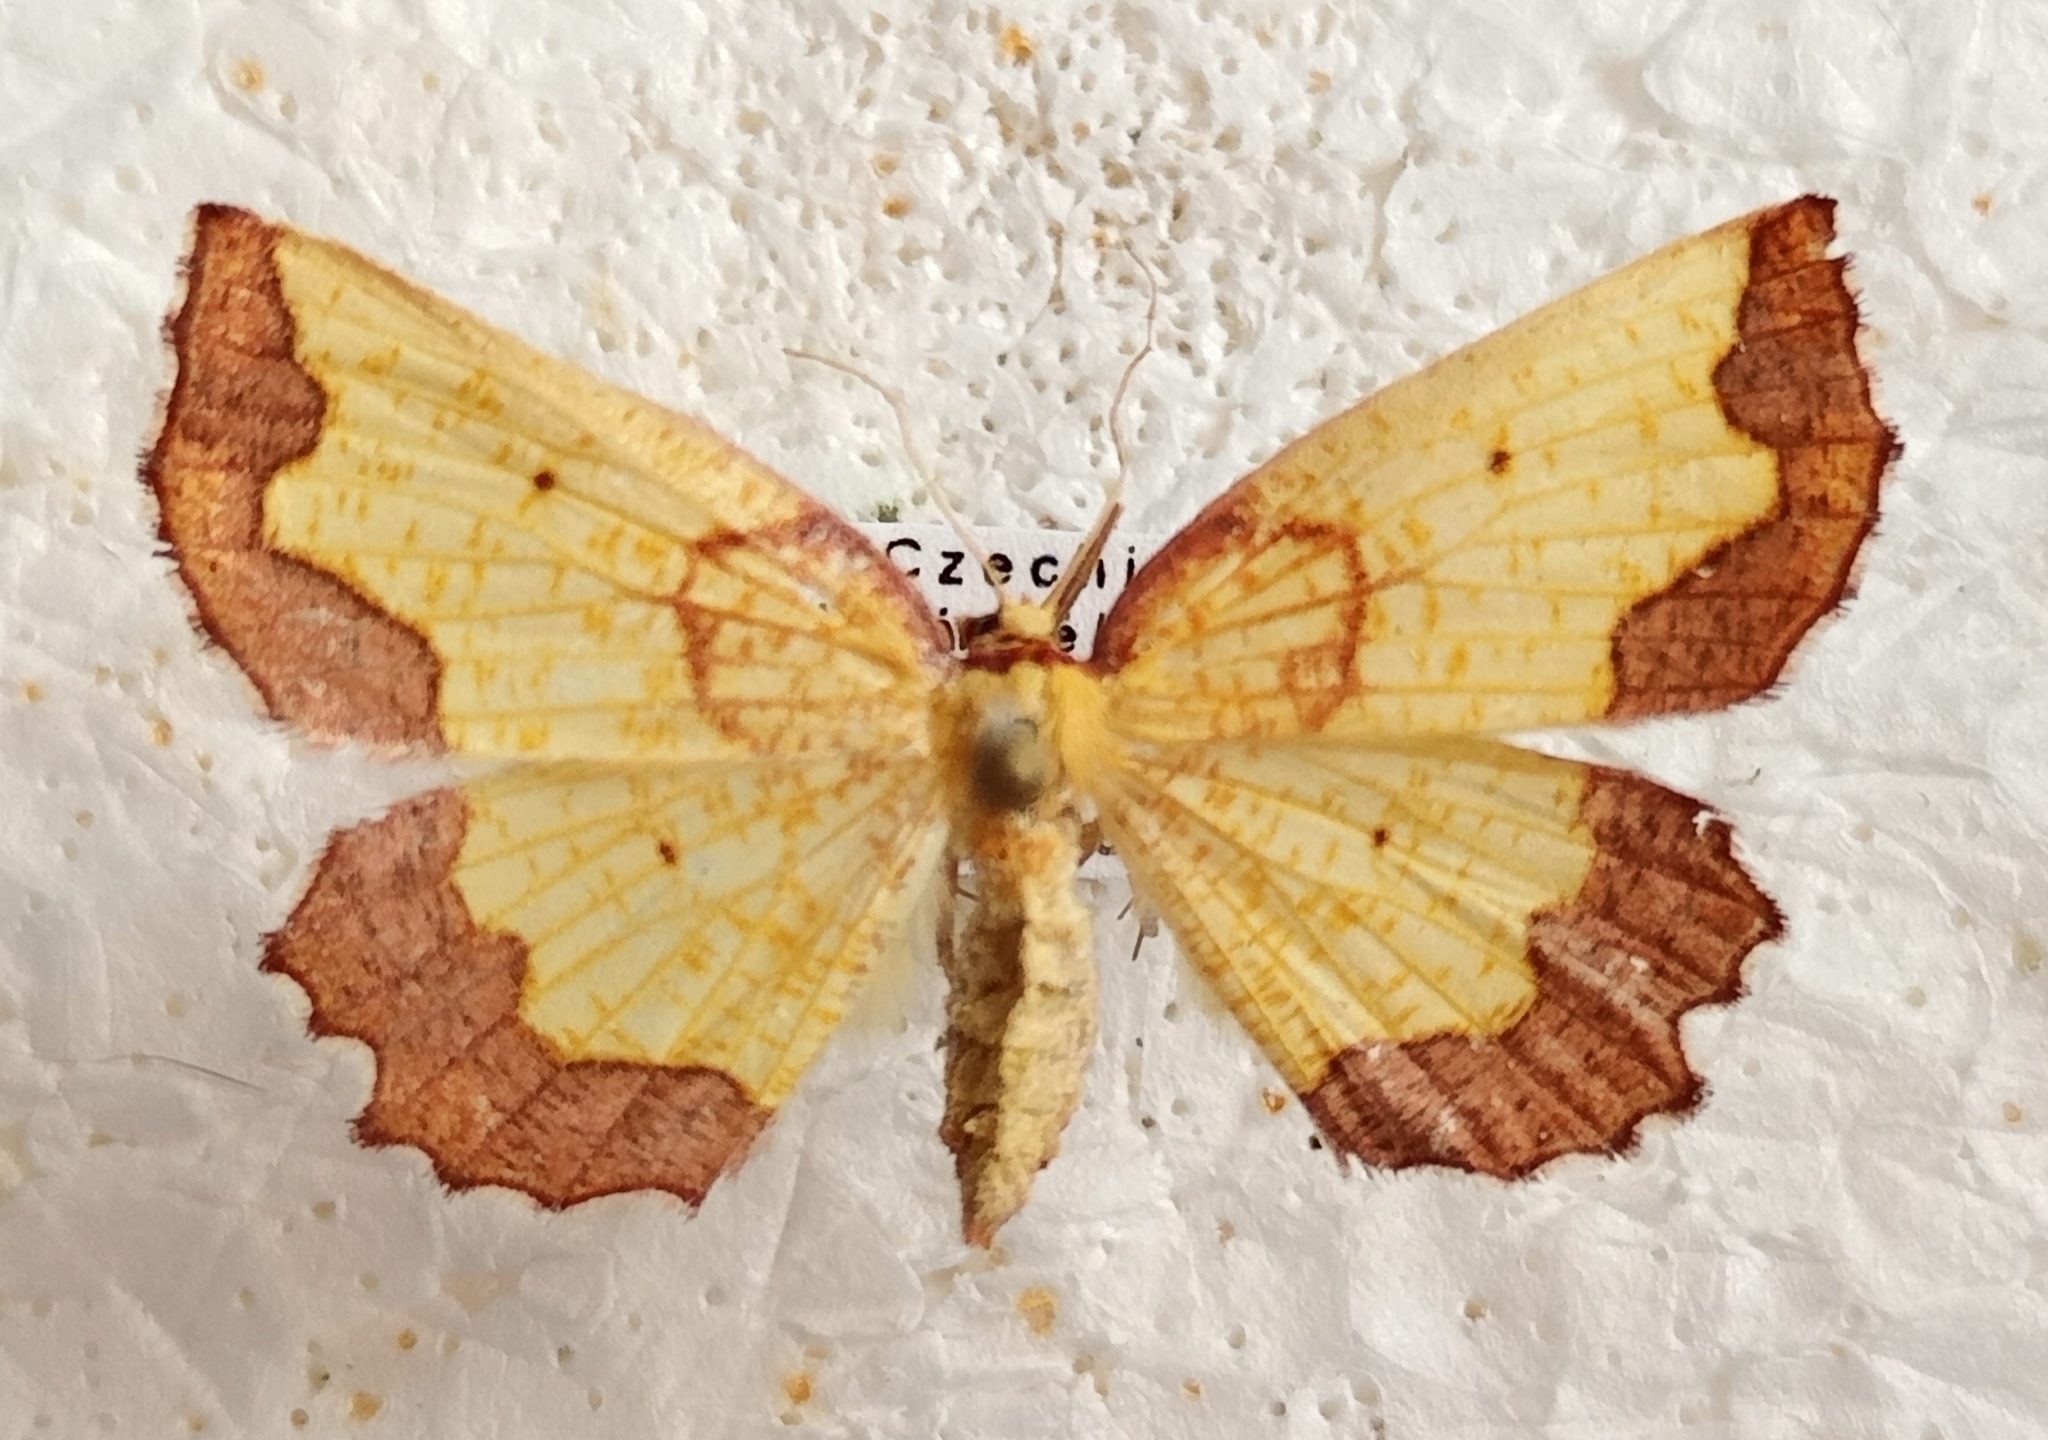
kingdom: Animalia
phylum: Arthropoda
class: Insecta
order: Lepidoptera
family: Geometridae
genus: Epione
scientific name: Epione vespertaria
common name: Dark bordered beauty
